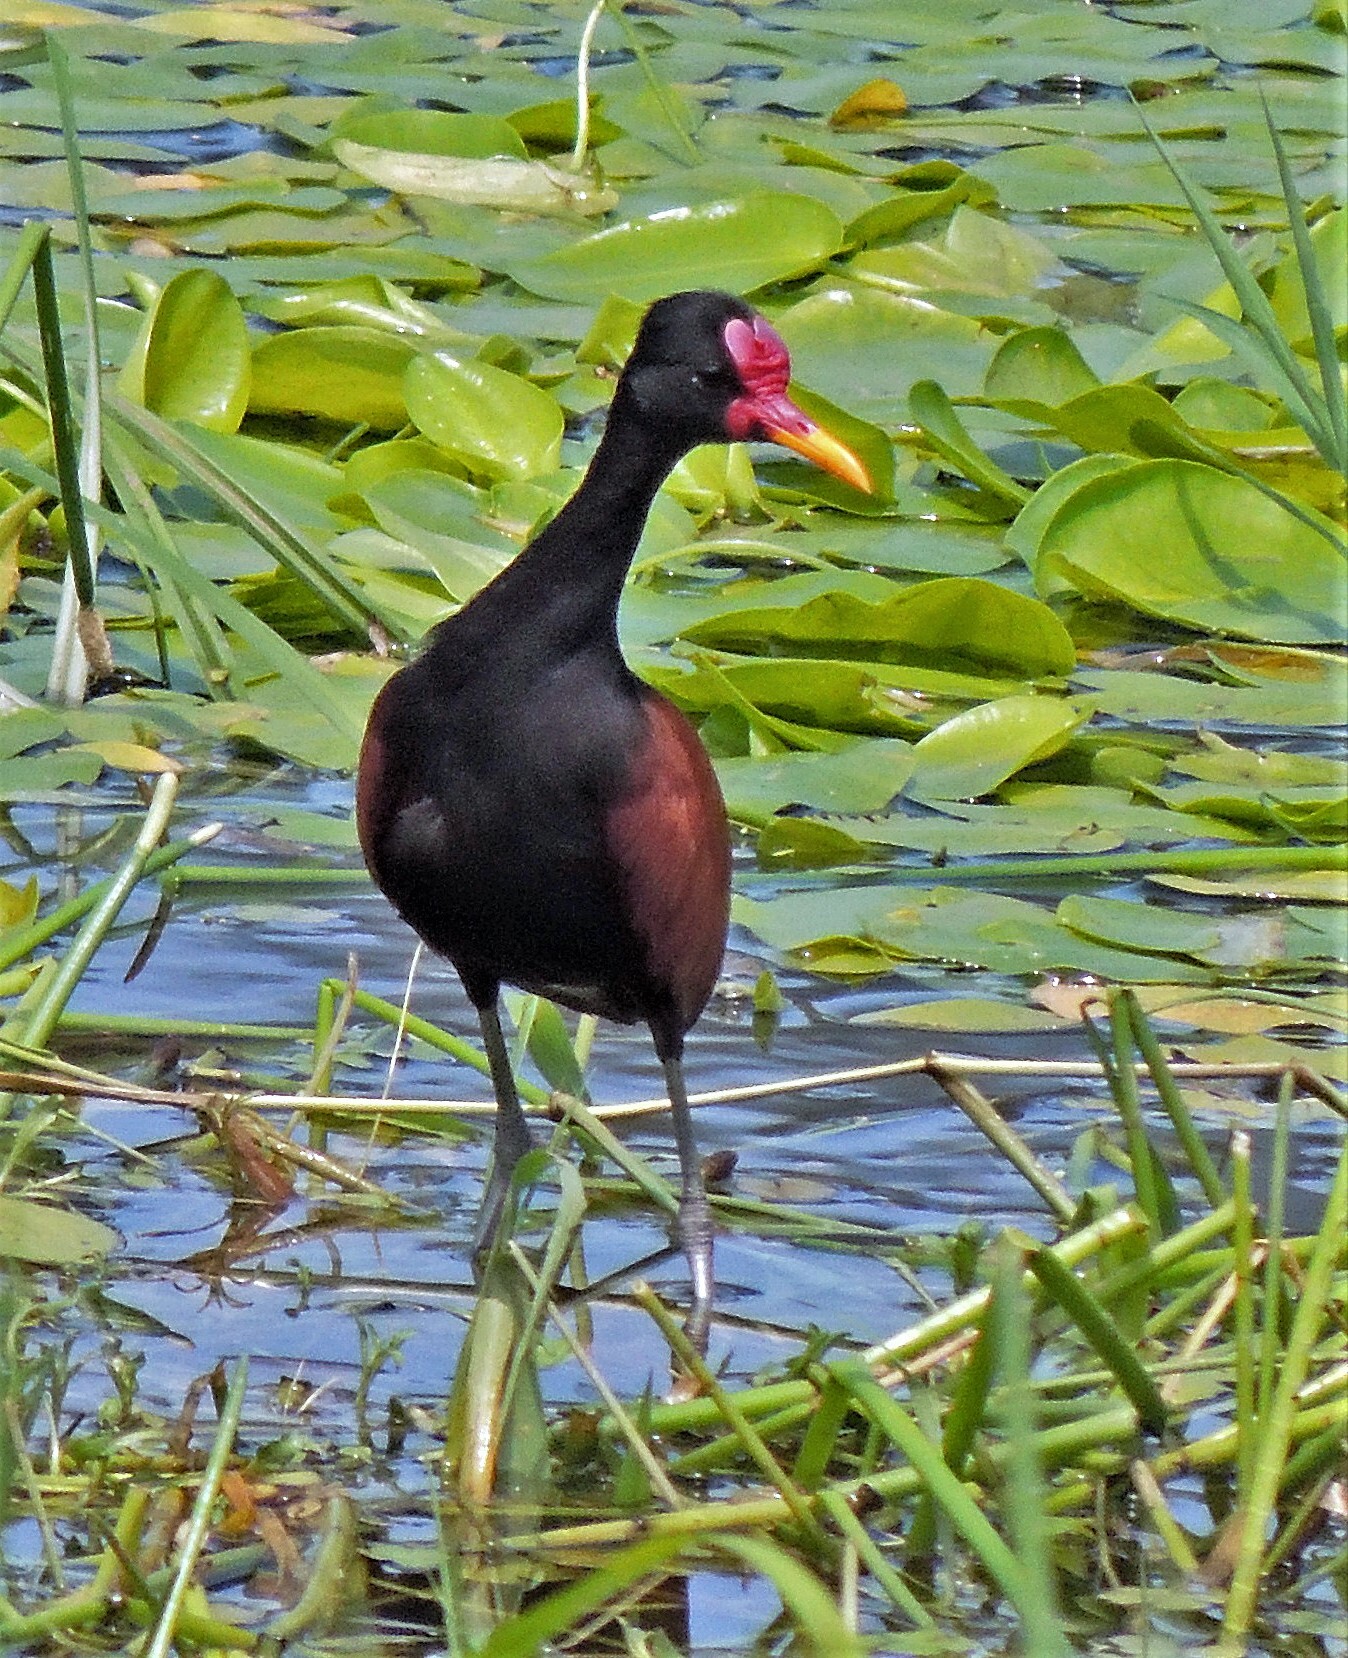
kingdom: Animalia
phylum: Chordata
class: Aves
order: Charadriiformes
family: Jacanidae
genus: Jacana
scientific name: Jacana jacana
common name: Wattled jacana
